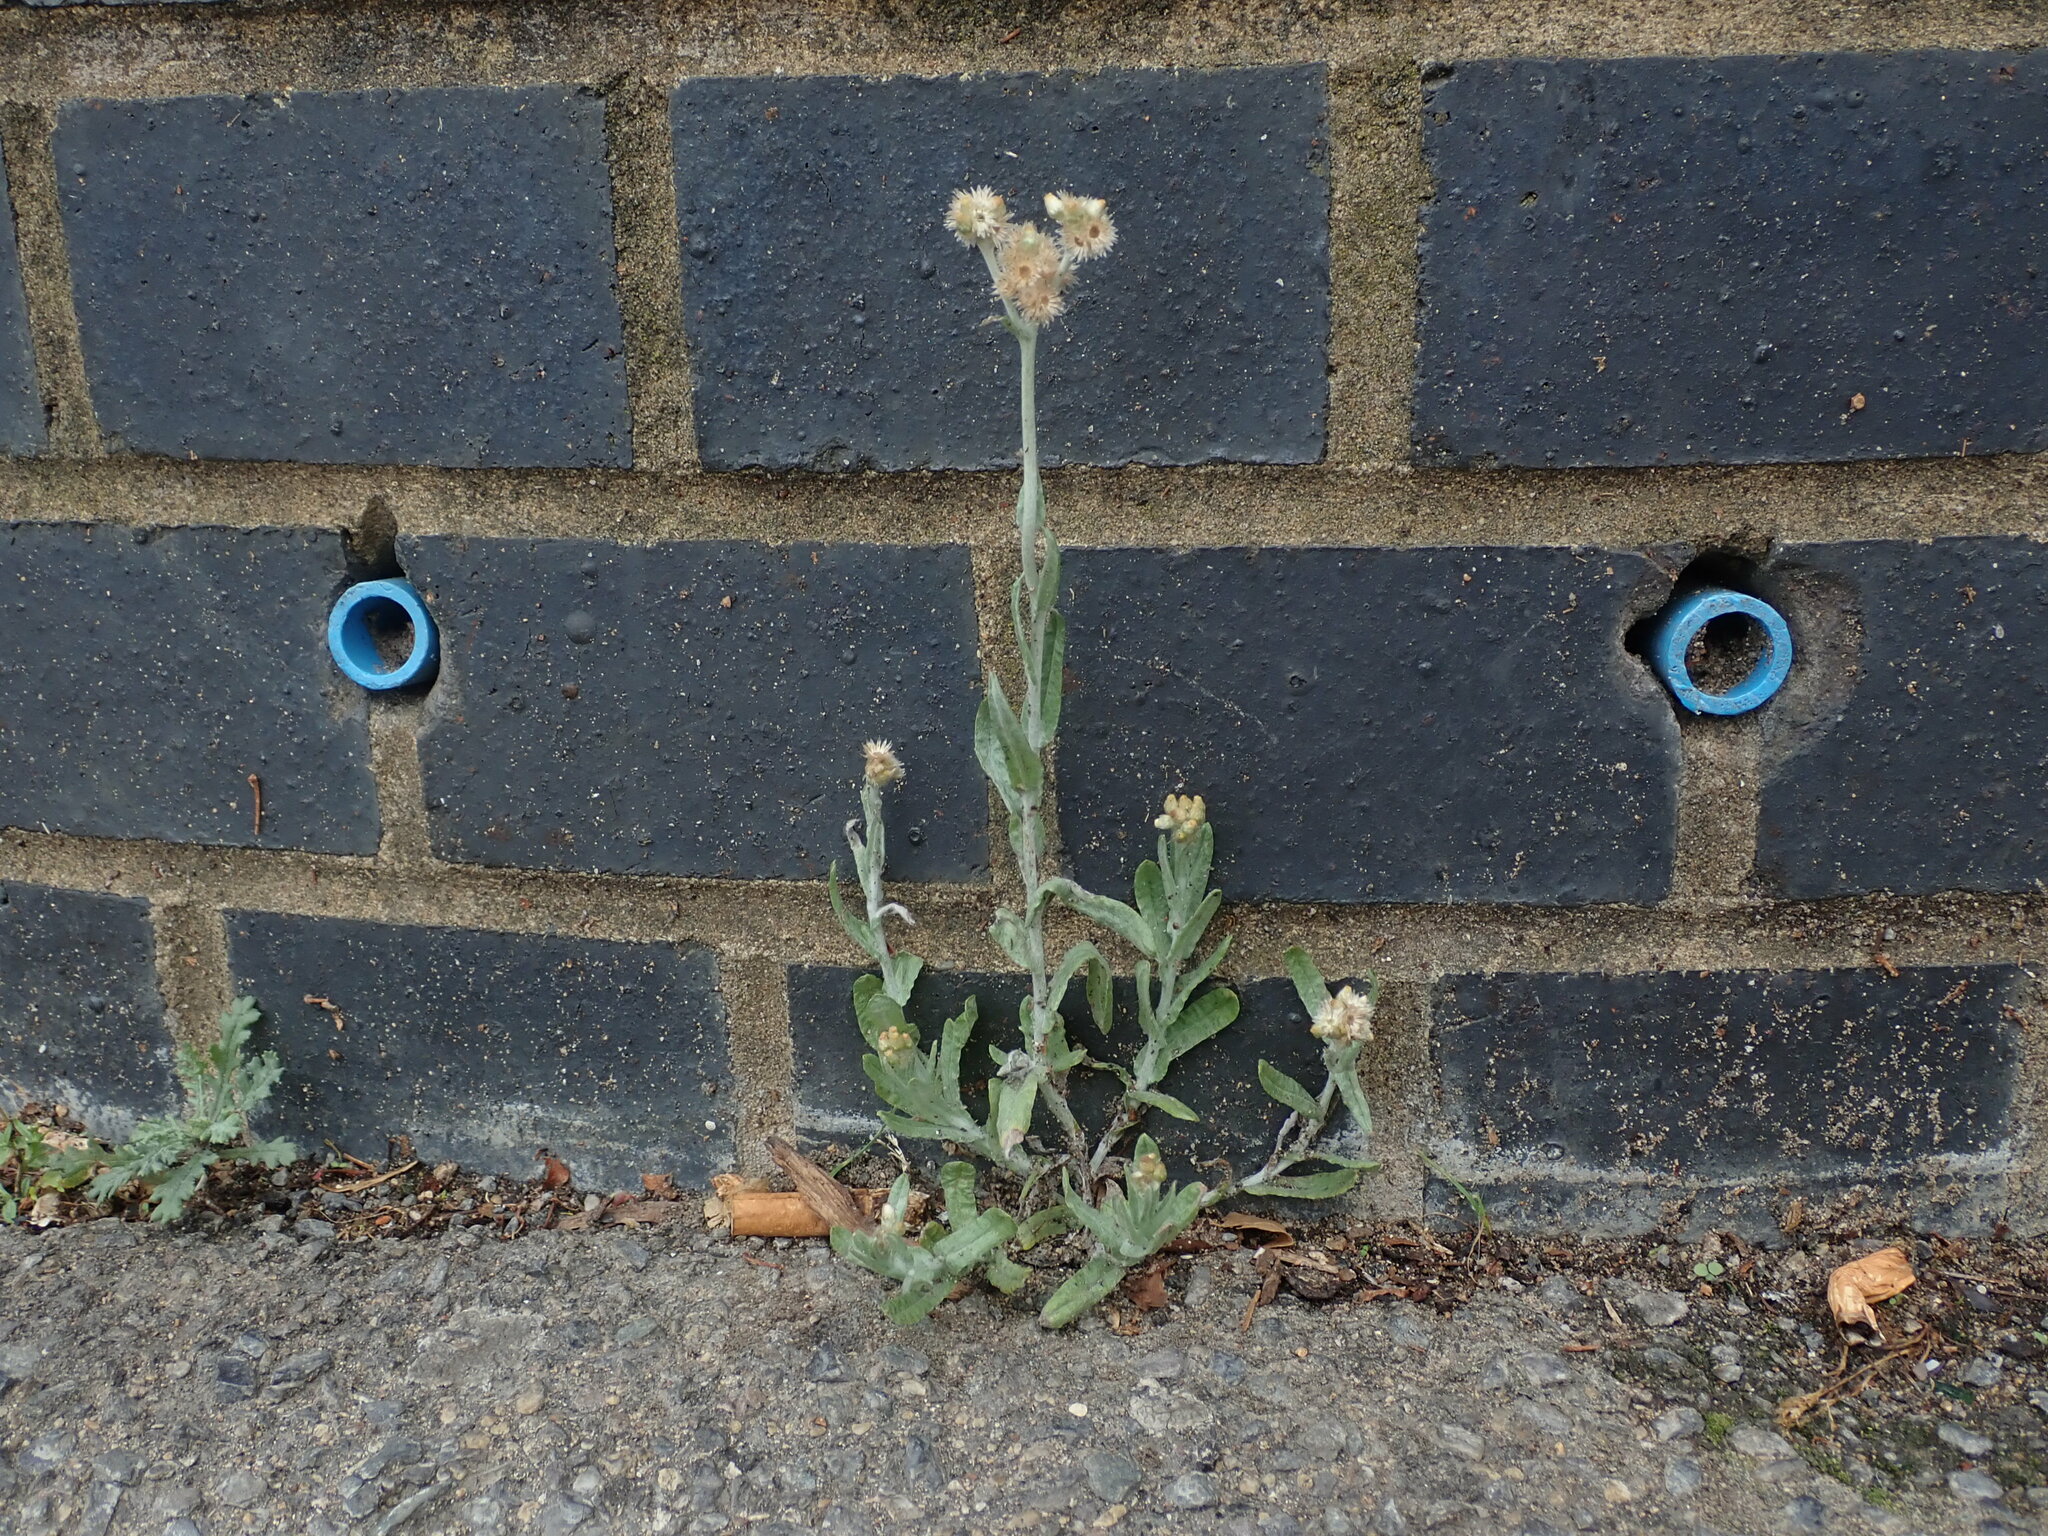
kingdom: Plantae
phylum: Tracheophyta
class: Magnoliopsida
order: Asterales
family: Asteraceae
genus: Helichrysum
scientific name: Helichrysum luteoalbum
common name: Daisy
